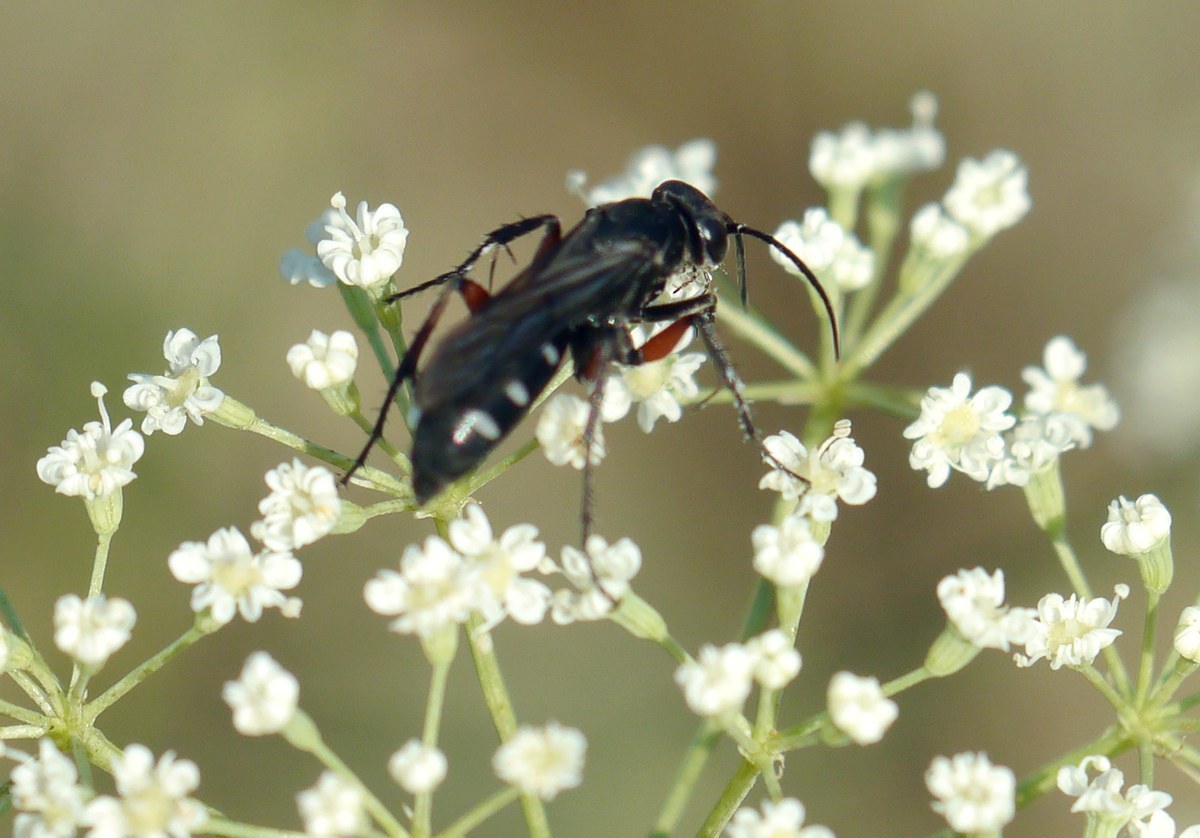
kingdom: Animalia
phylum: Arthropoda
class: Insecta
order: Hymenoptera
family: Pompilidae
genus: Aporinellus
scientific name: Aporinellus moestus
